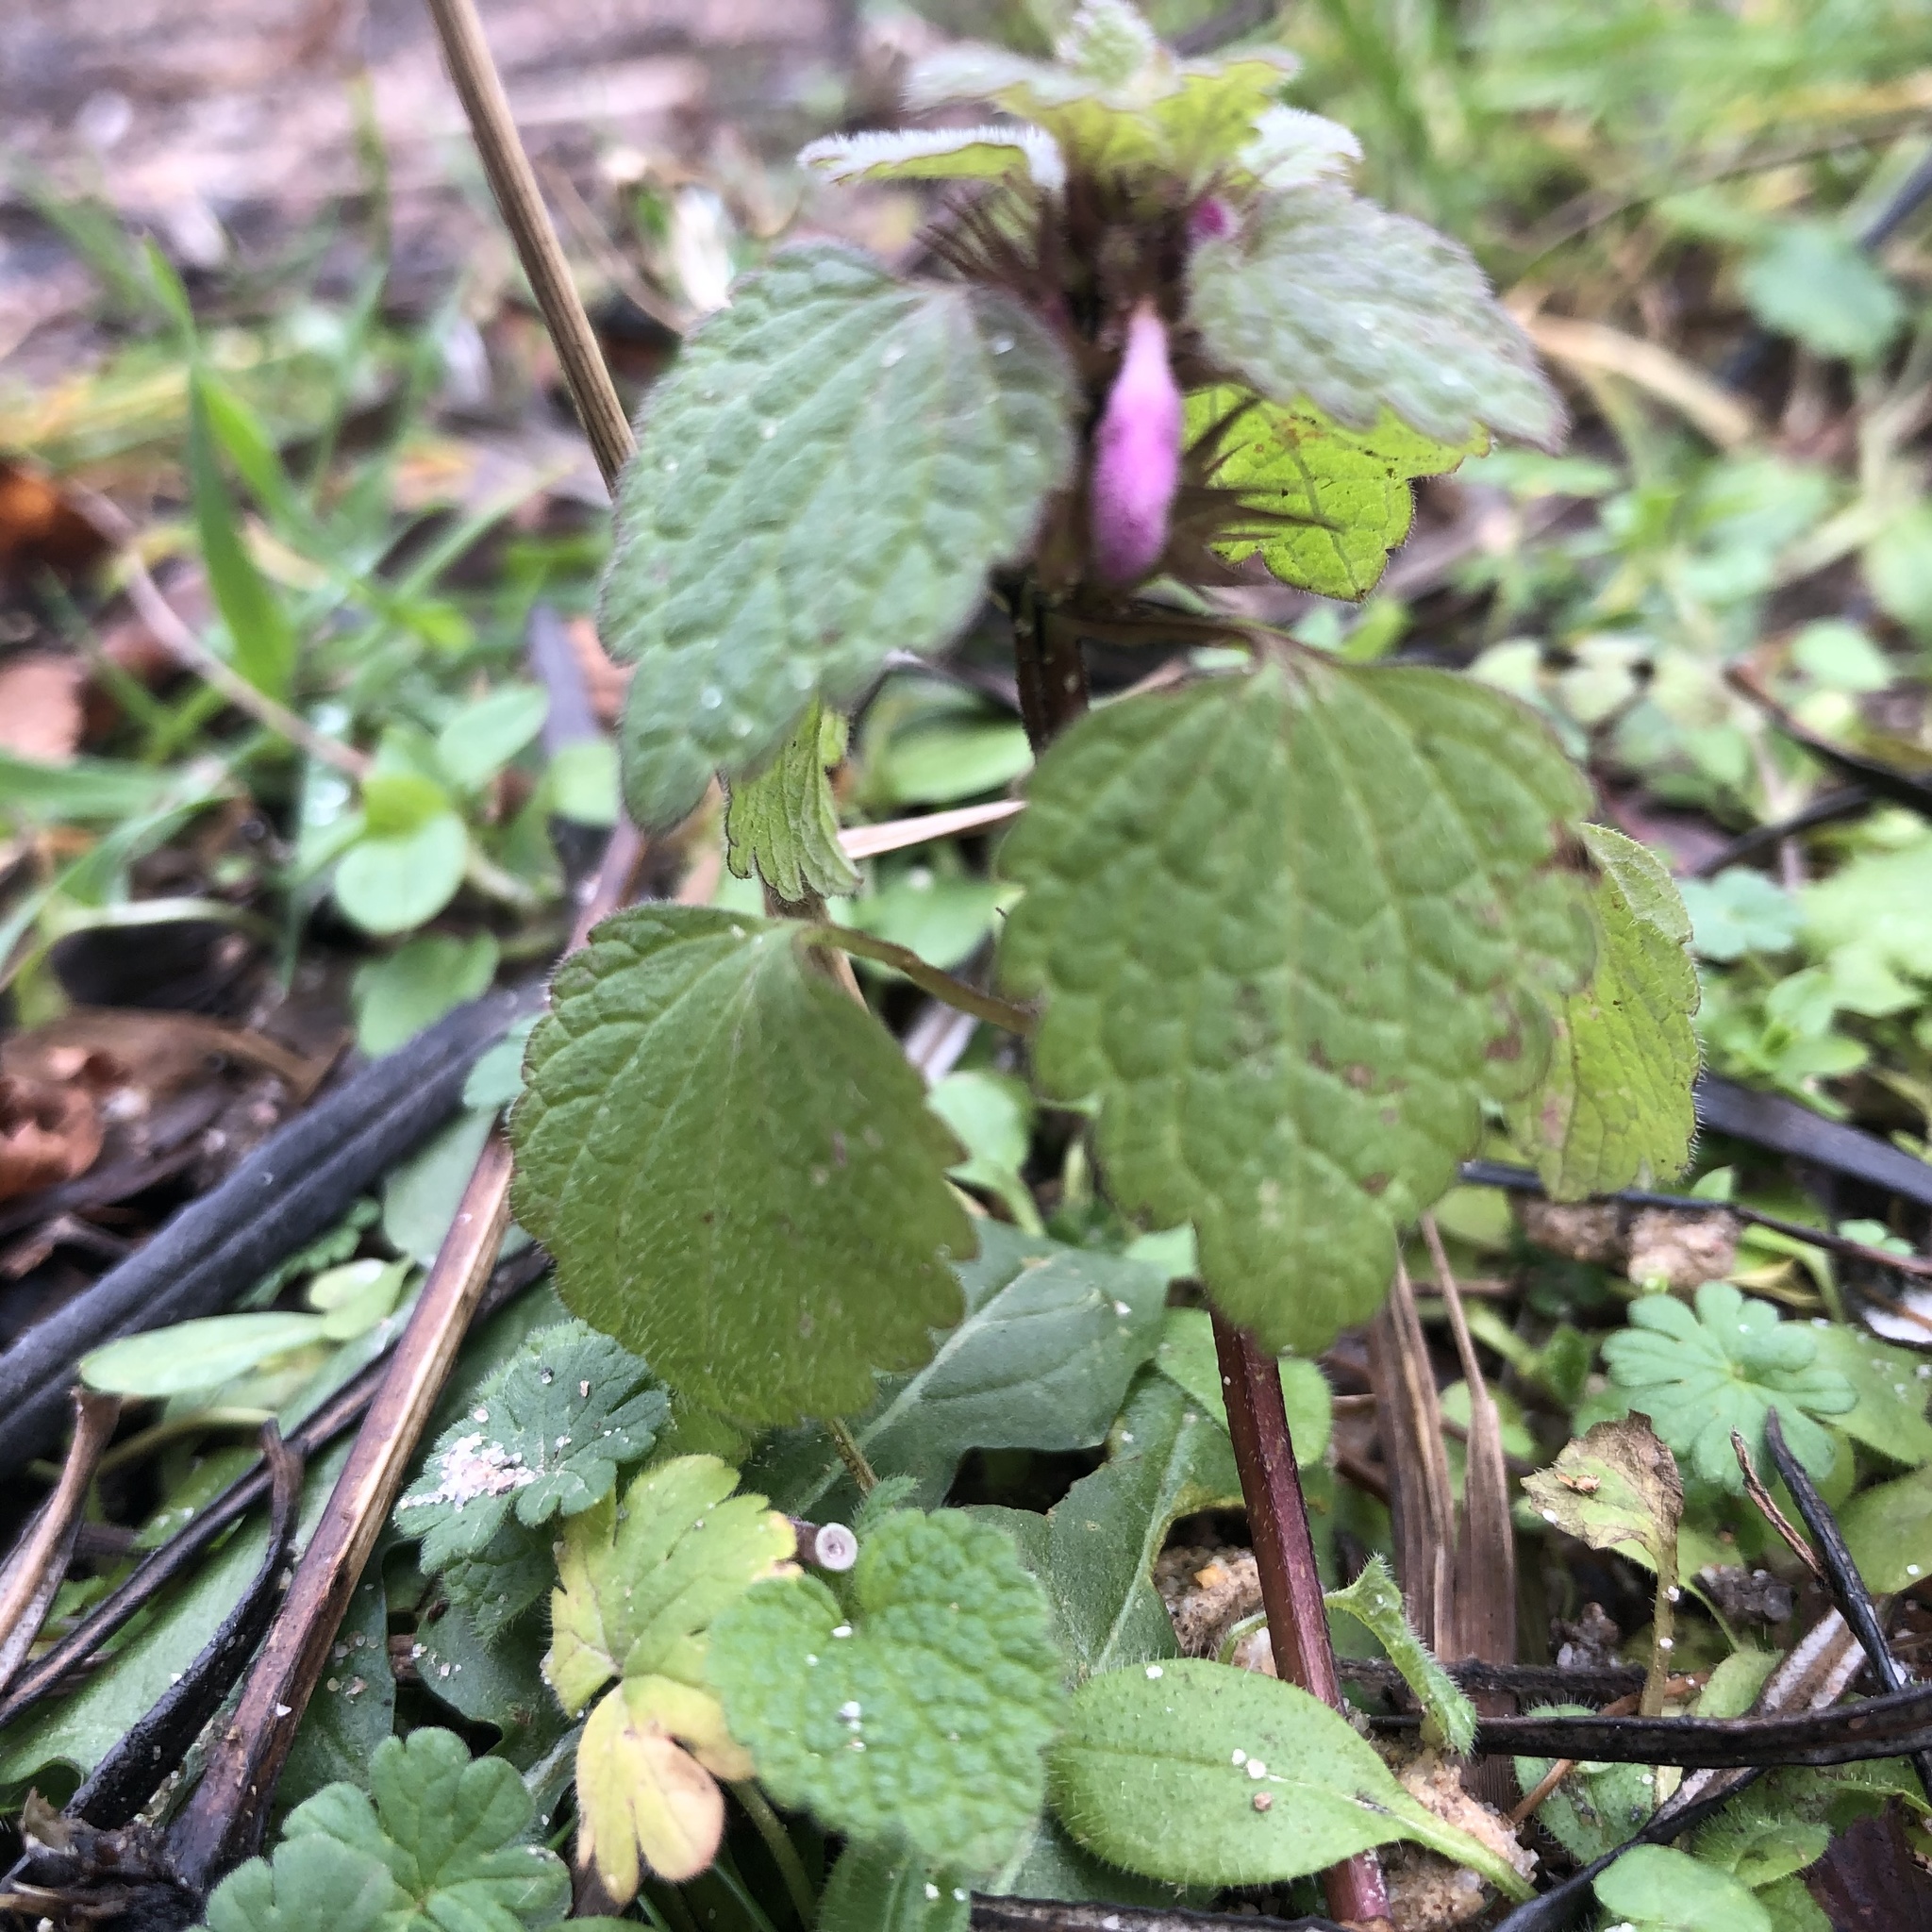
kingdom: Plantae
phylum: Tracheophyta
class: Magnoliopsida
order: Lamiales
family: Lamiaceae
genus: Lamium
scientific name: Lamium purpureum
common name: Red dead-nettle
